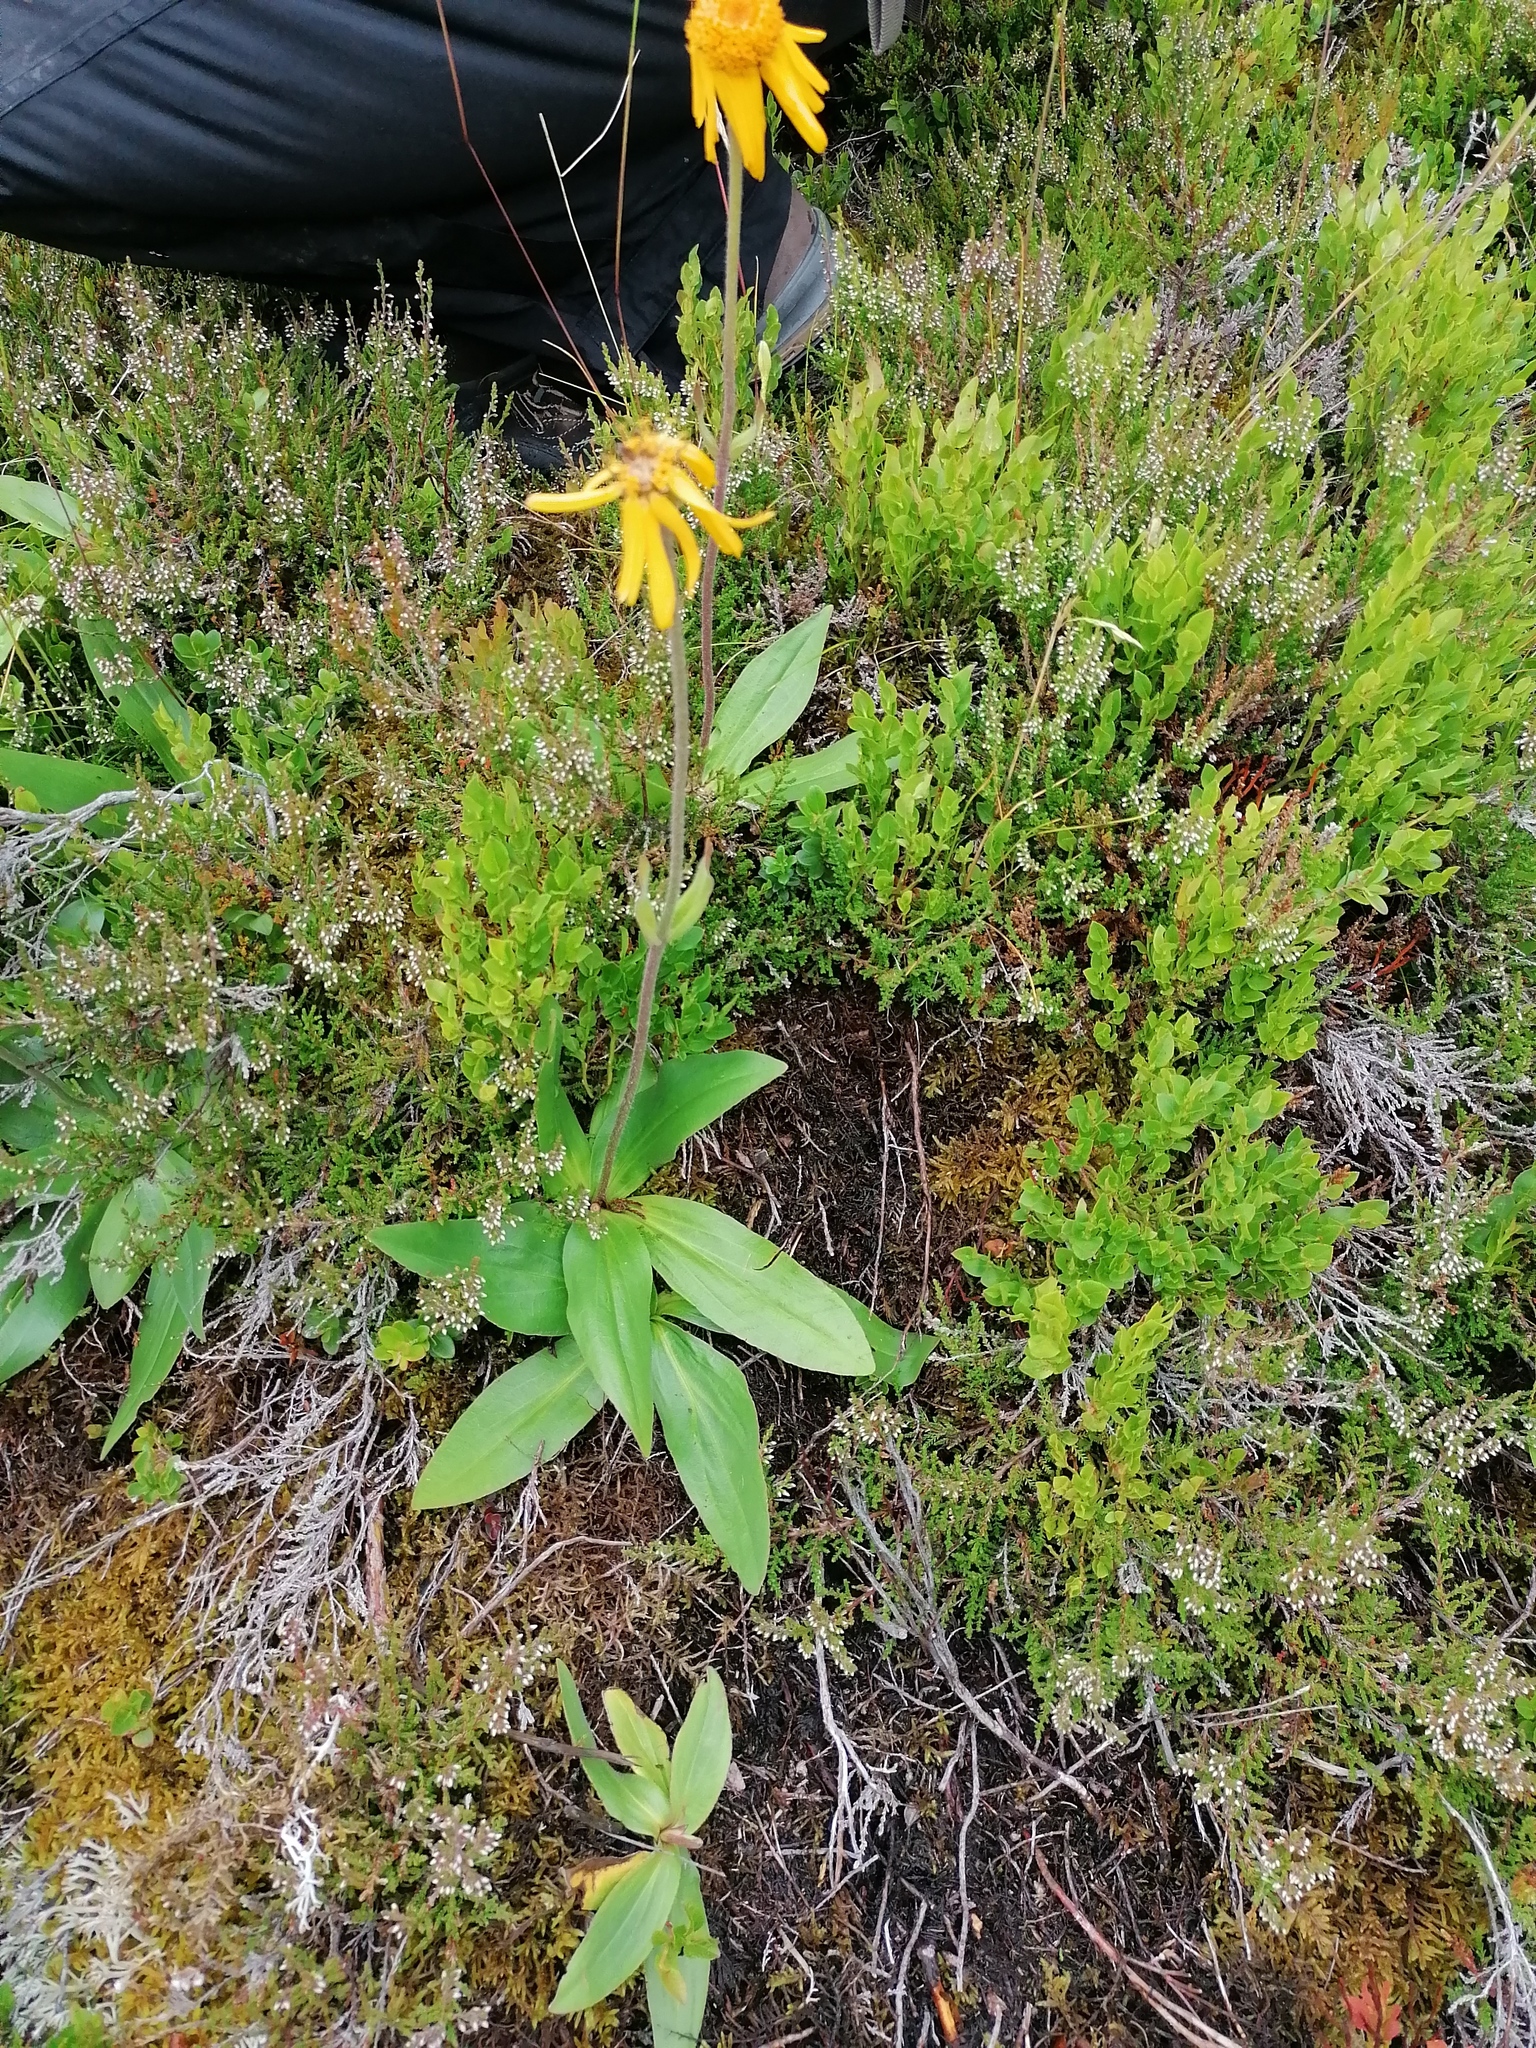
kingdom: Plantae
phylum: Tracheophyta
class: Magnoliopsida
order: Asterales
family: Asteraceae
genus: Arnica
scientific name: Arnica montana
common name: Leopard's bane
